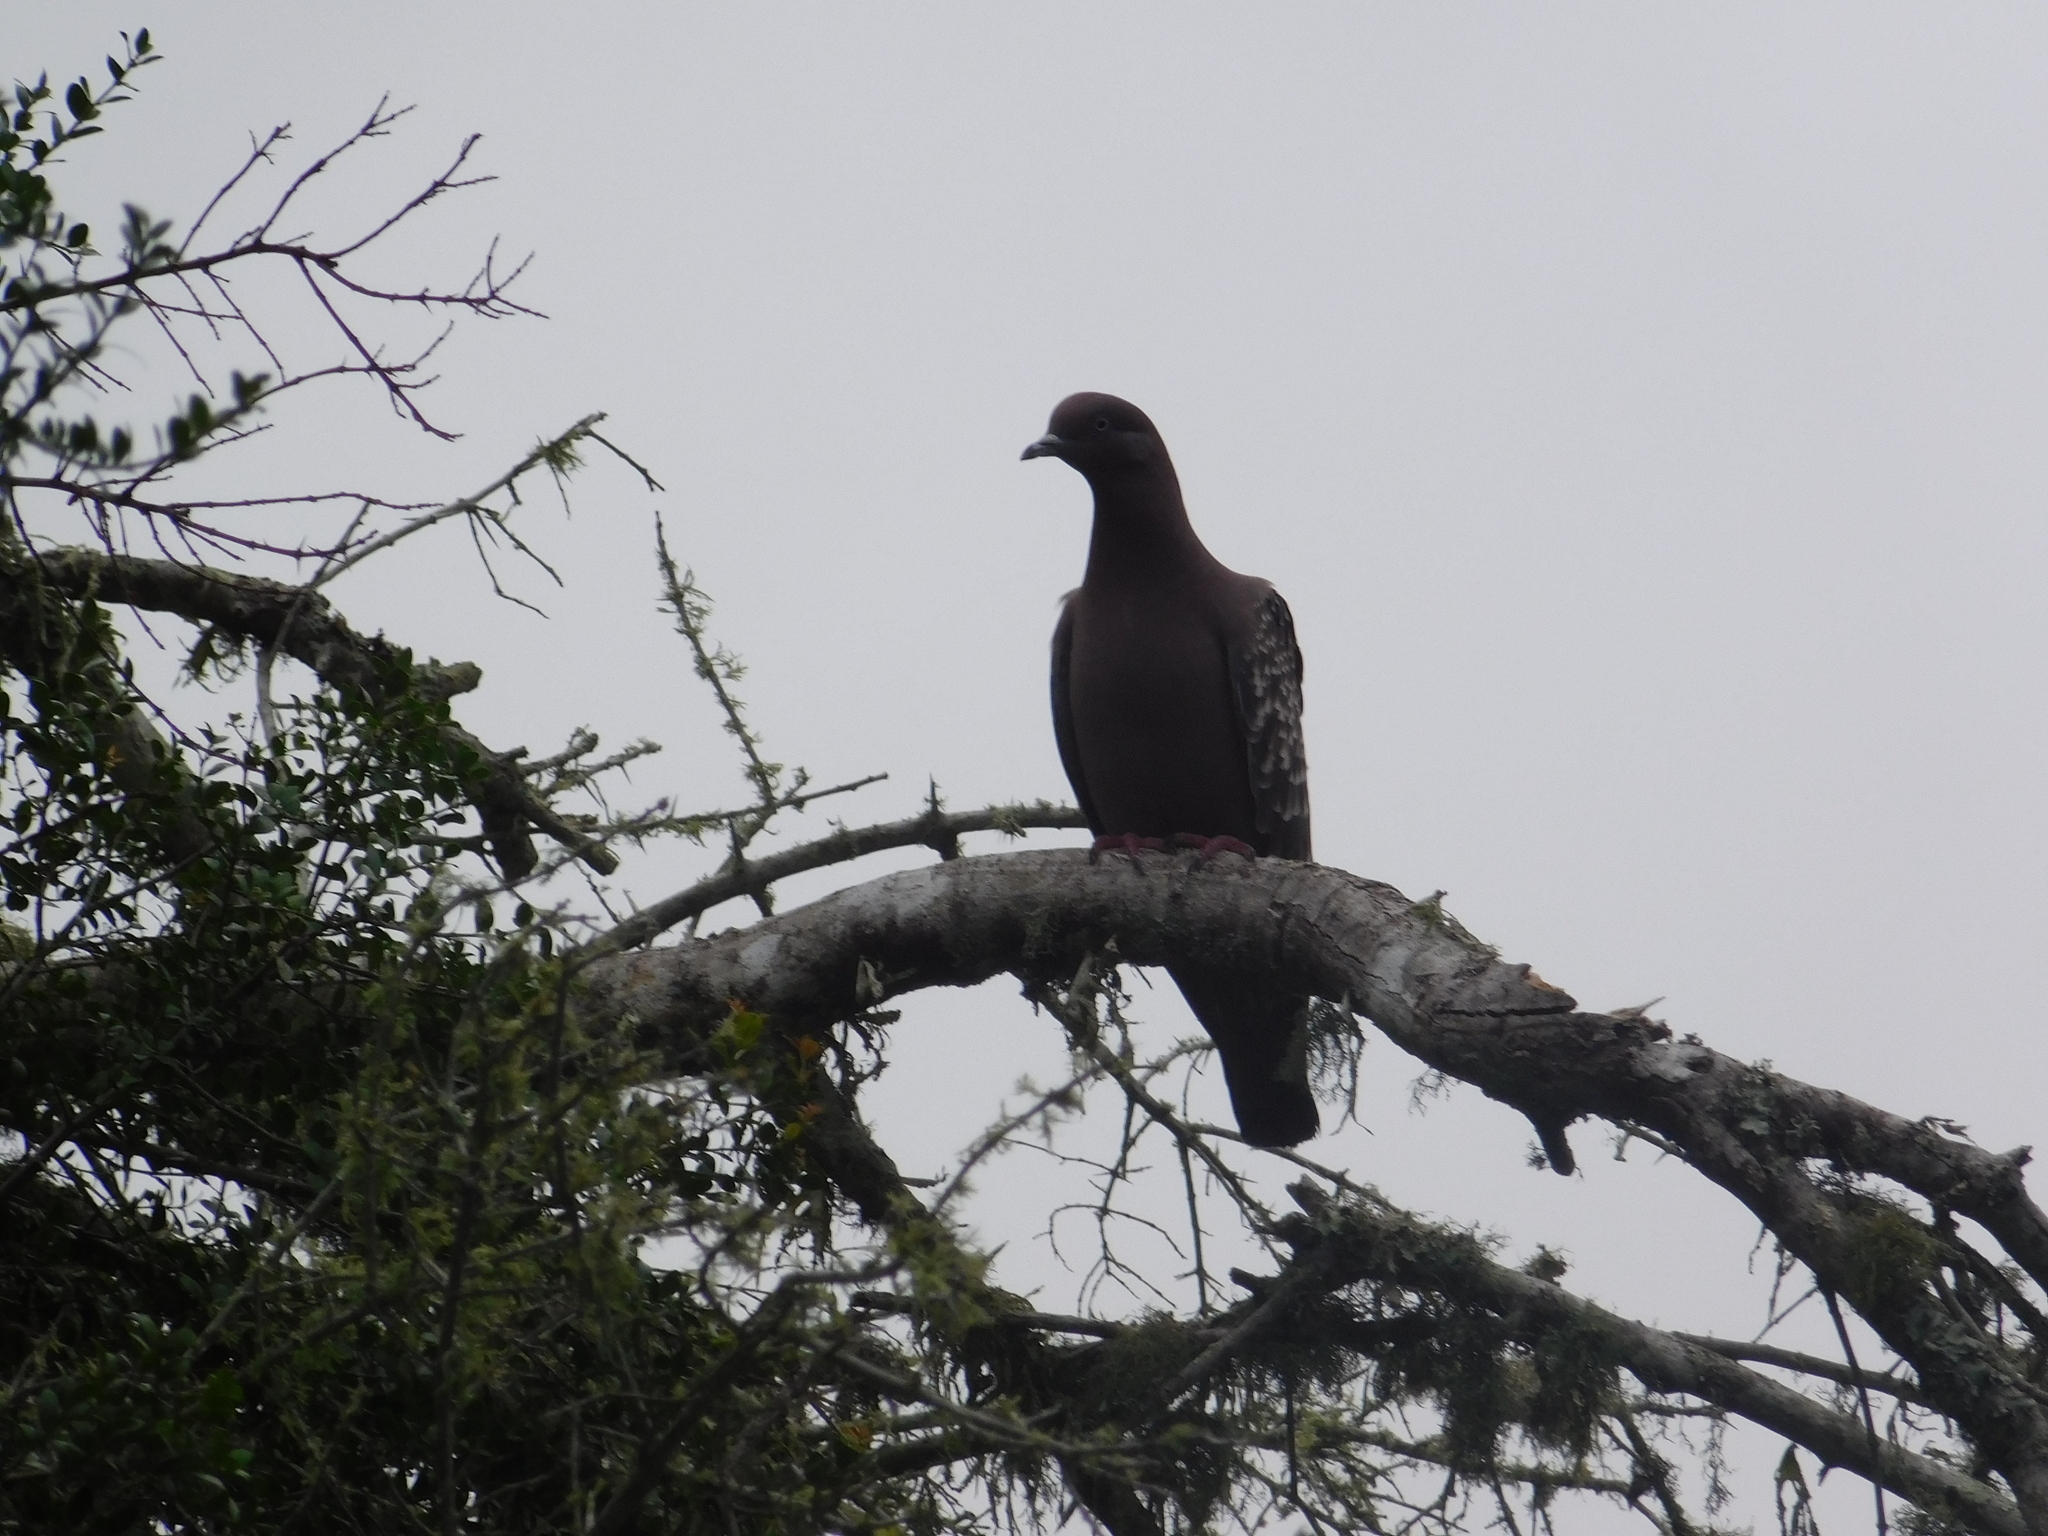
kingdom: Animalia
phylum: Chordata
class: Aves
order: Columbiformes
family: Columbidae
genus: Patagioenas
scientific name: Patagioenas maculosa
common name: Spot-winged pigeon
